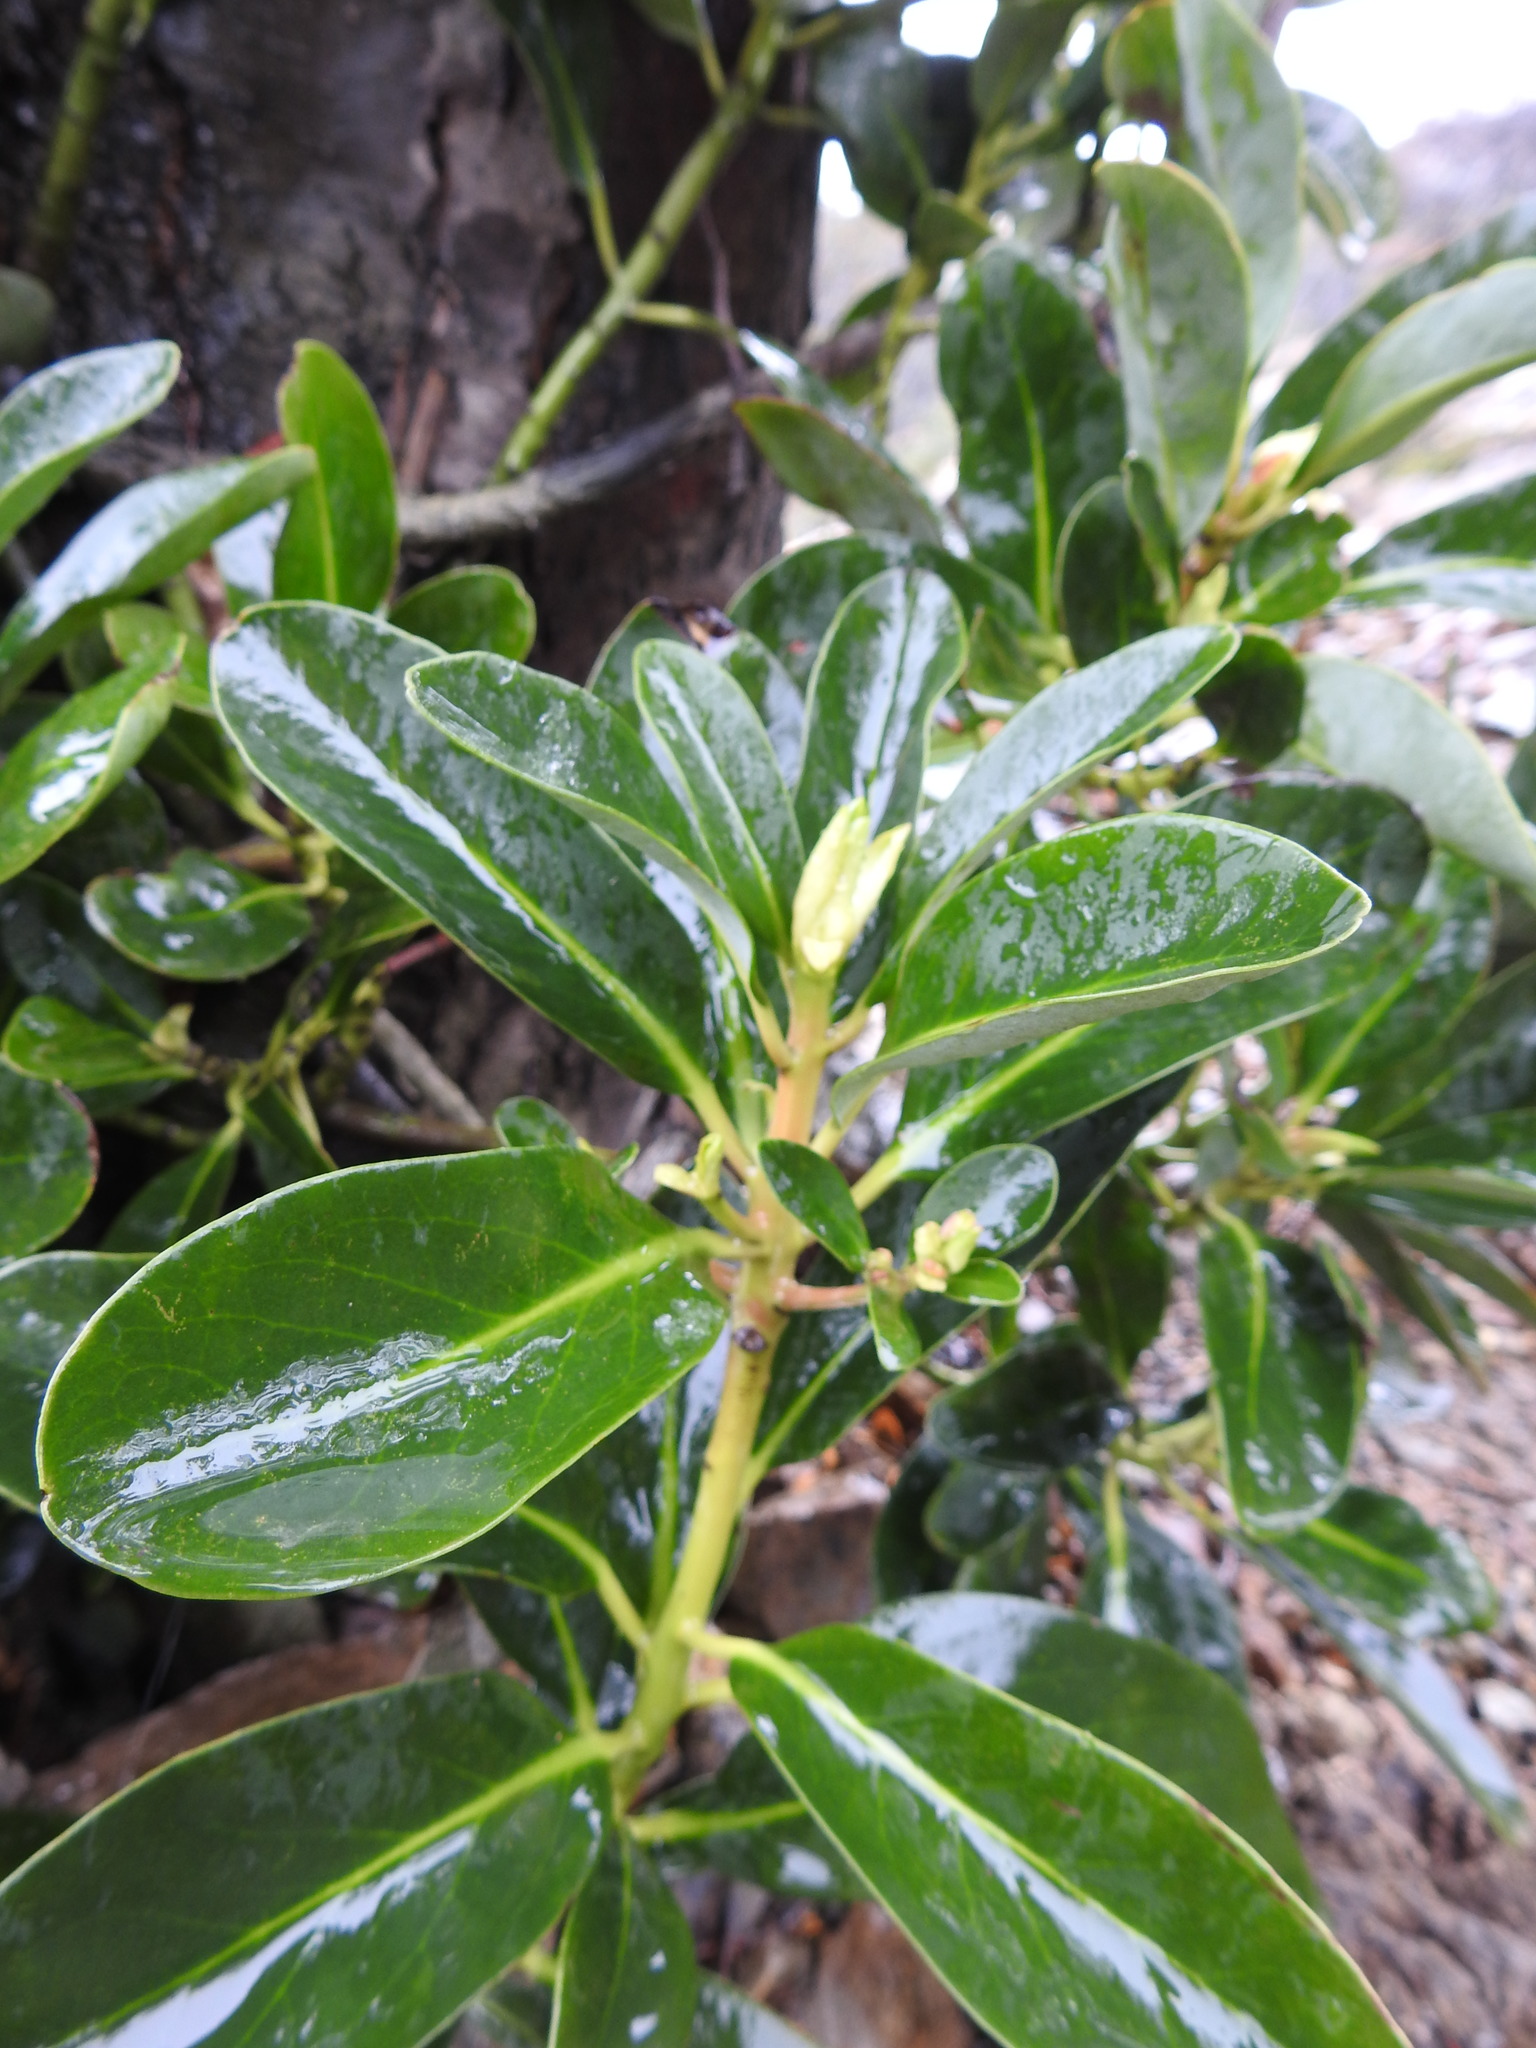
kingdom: Plantae
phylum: Tracheophyta
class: Magnoliopsida
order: Canellales
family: Winteraceae
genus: Drimys
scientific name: Drimys winteri
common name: Winter's-bark
